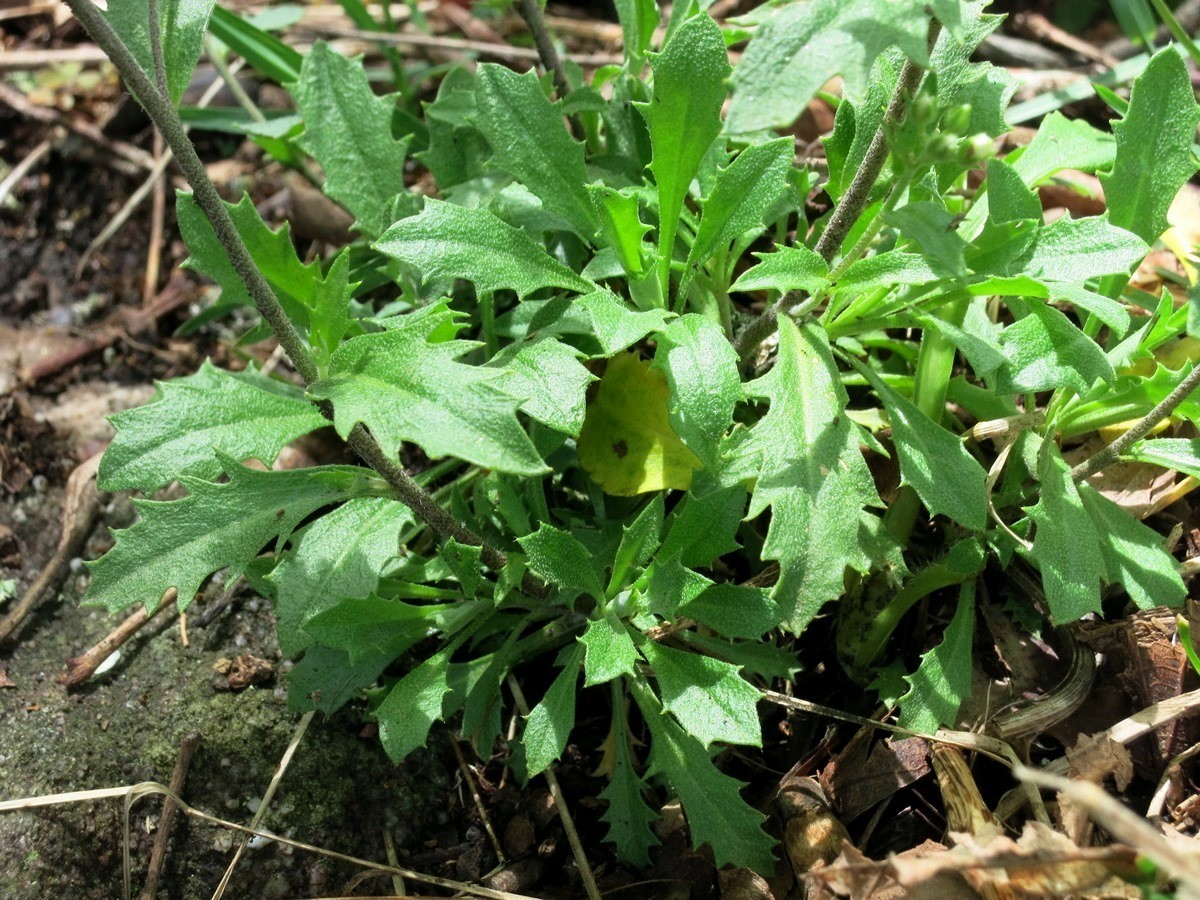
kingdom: Plantae
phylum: Tracheophyta
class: Magnoliopsida
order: Brassicales
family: Brassicaceae
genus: Draba
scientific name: Draba ramosissima
